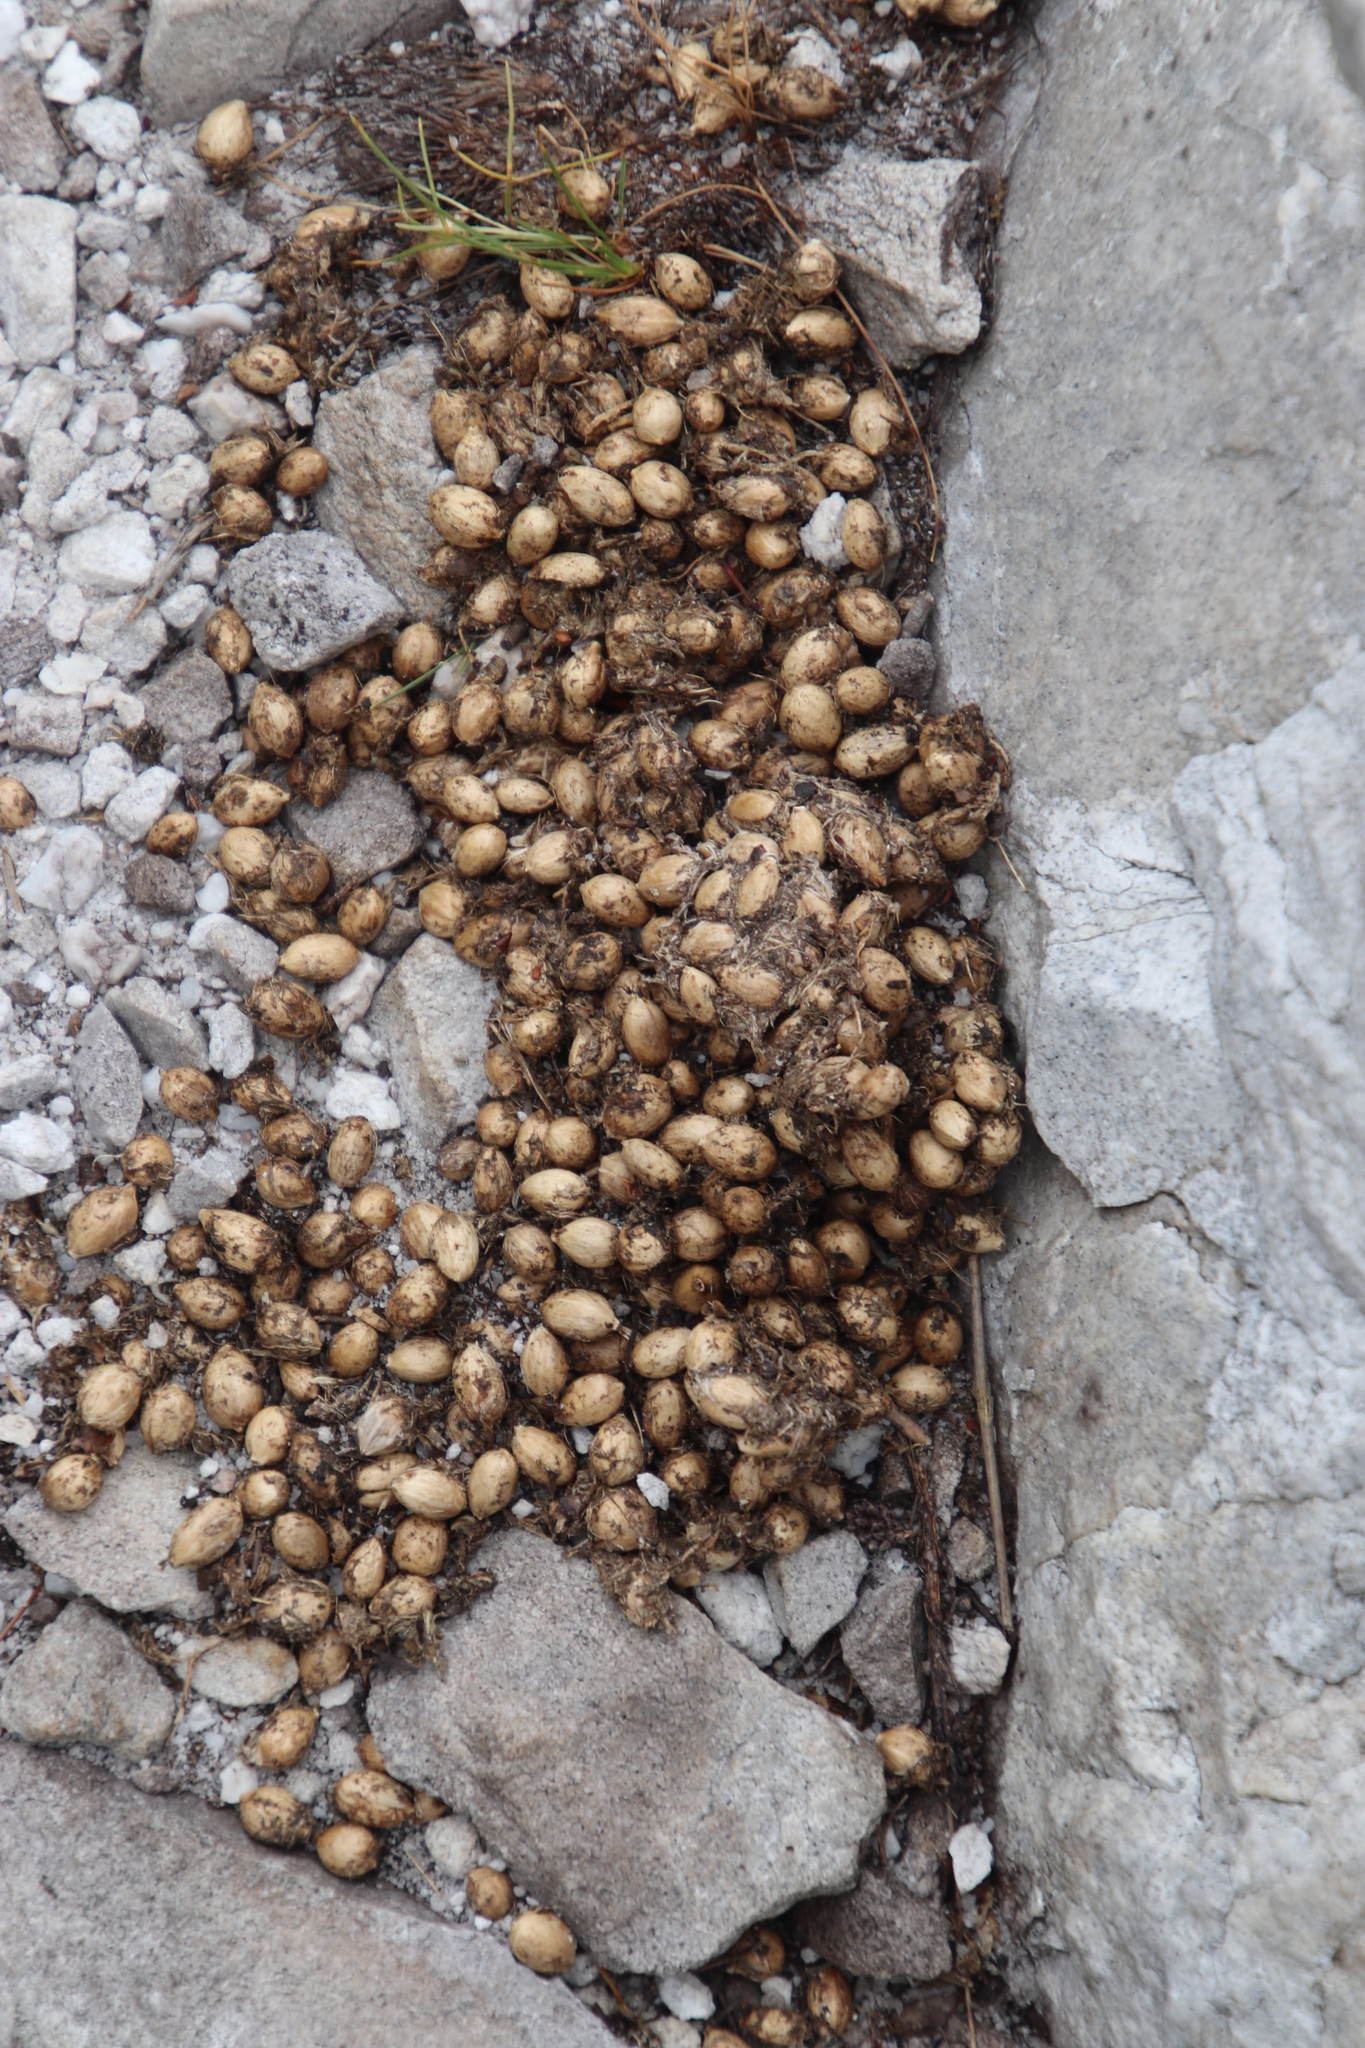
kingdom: Animalia
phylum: Chordata
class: Mammalia
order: Primates
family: Cercopithecidae
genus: Papio
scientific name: Papio ursinus
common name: Chacma baboon
